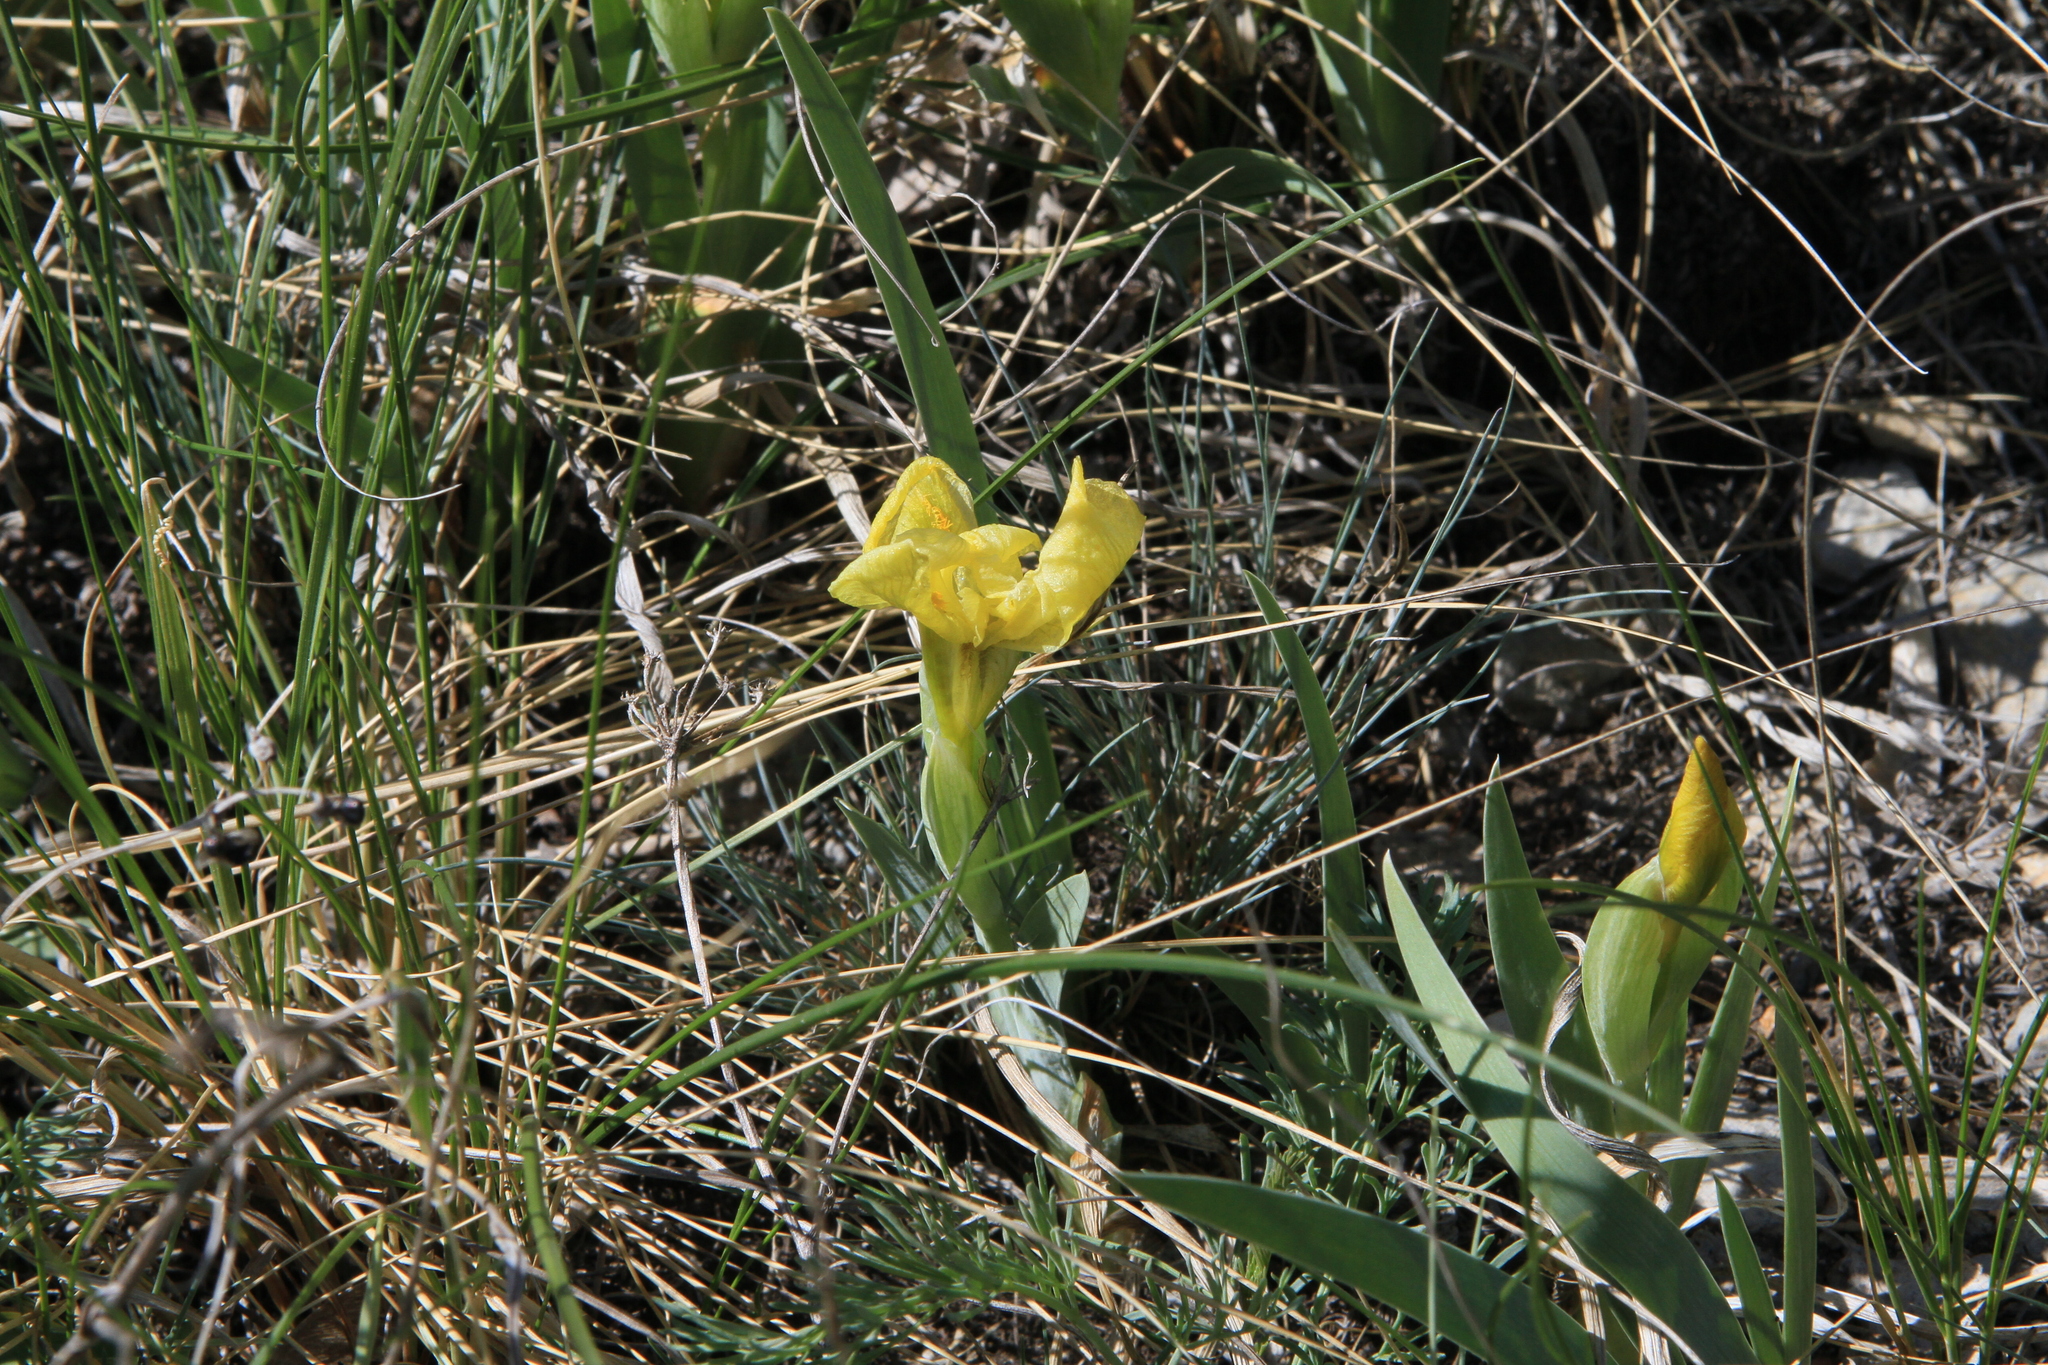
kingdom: Plantae
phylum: Tracheophyta
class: Liliopsida
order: Asparagales
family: Iridaceae
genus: Iris
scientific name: Iris humilis
